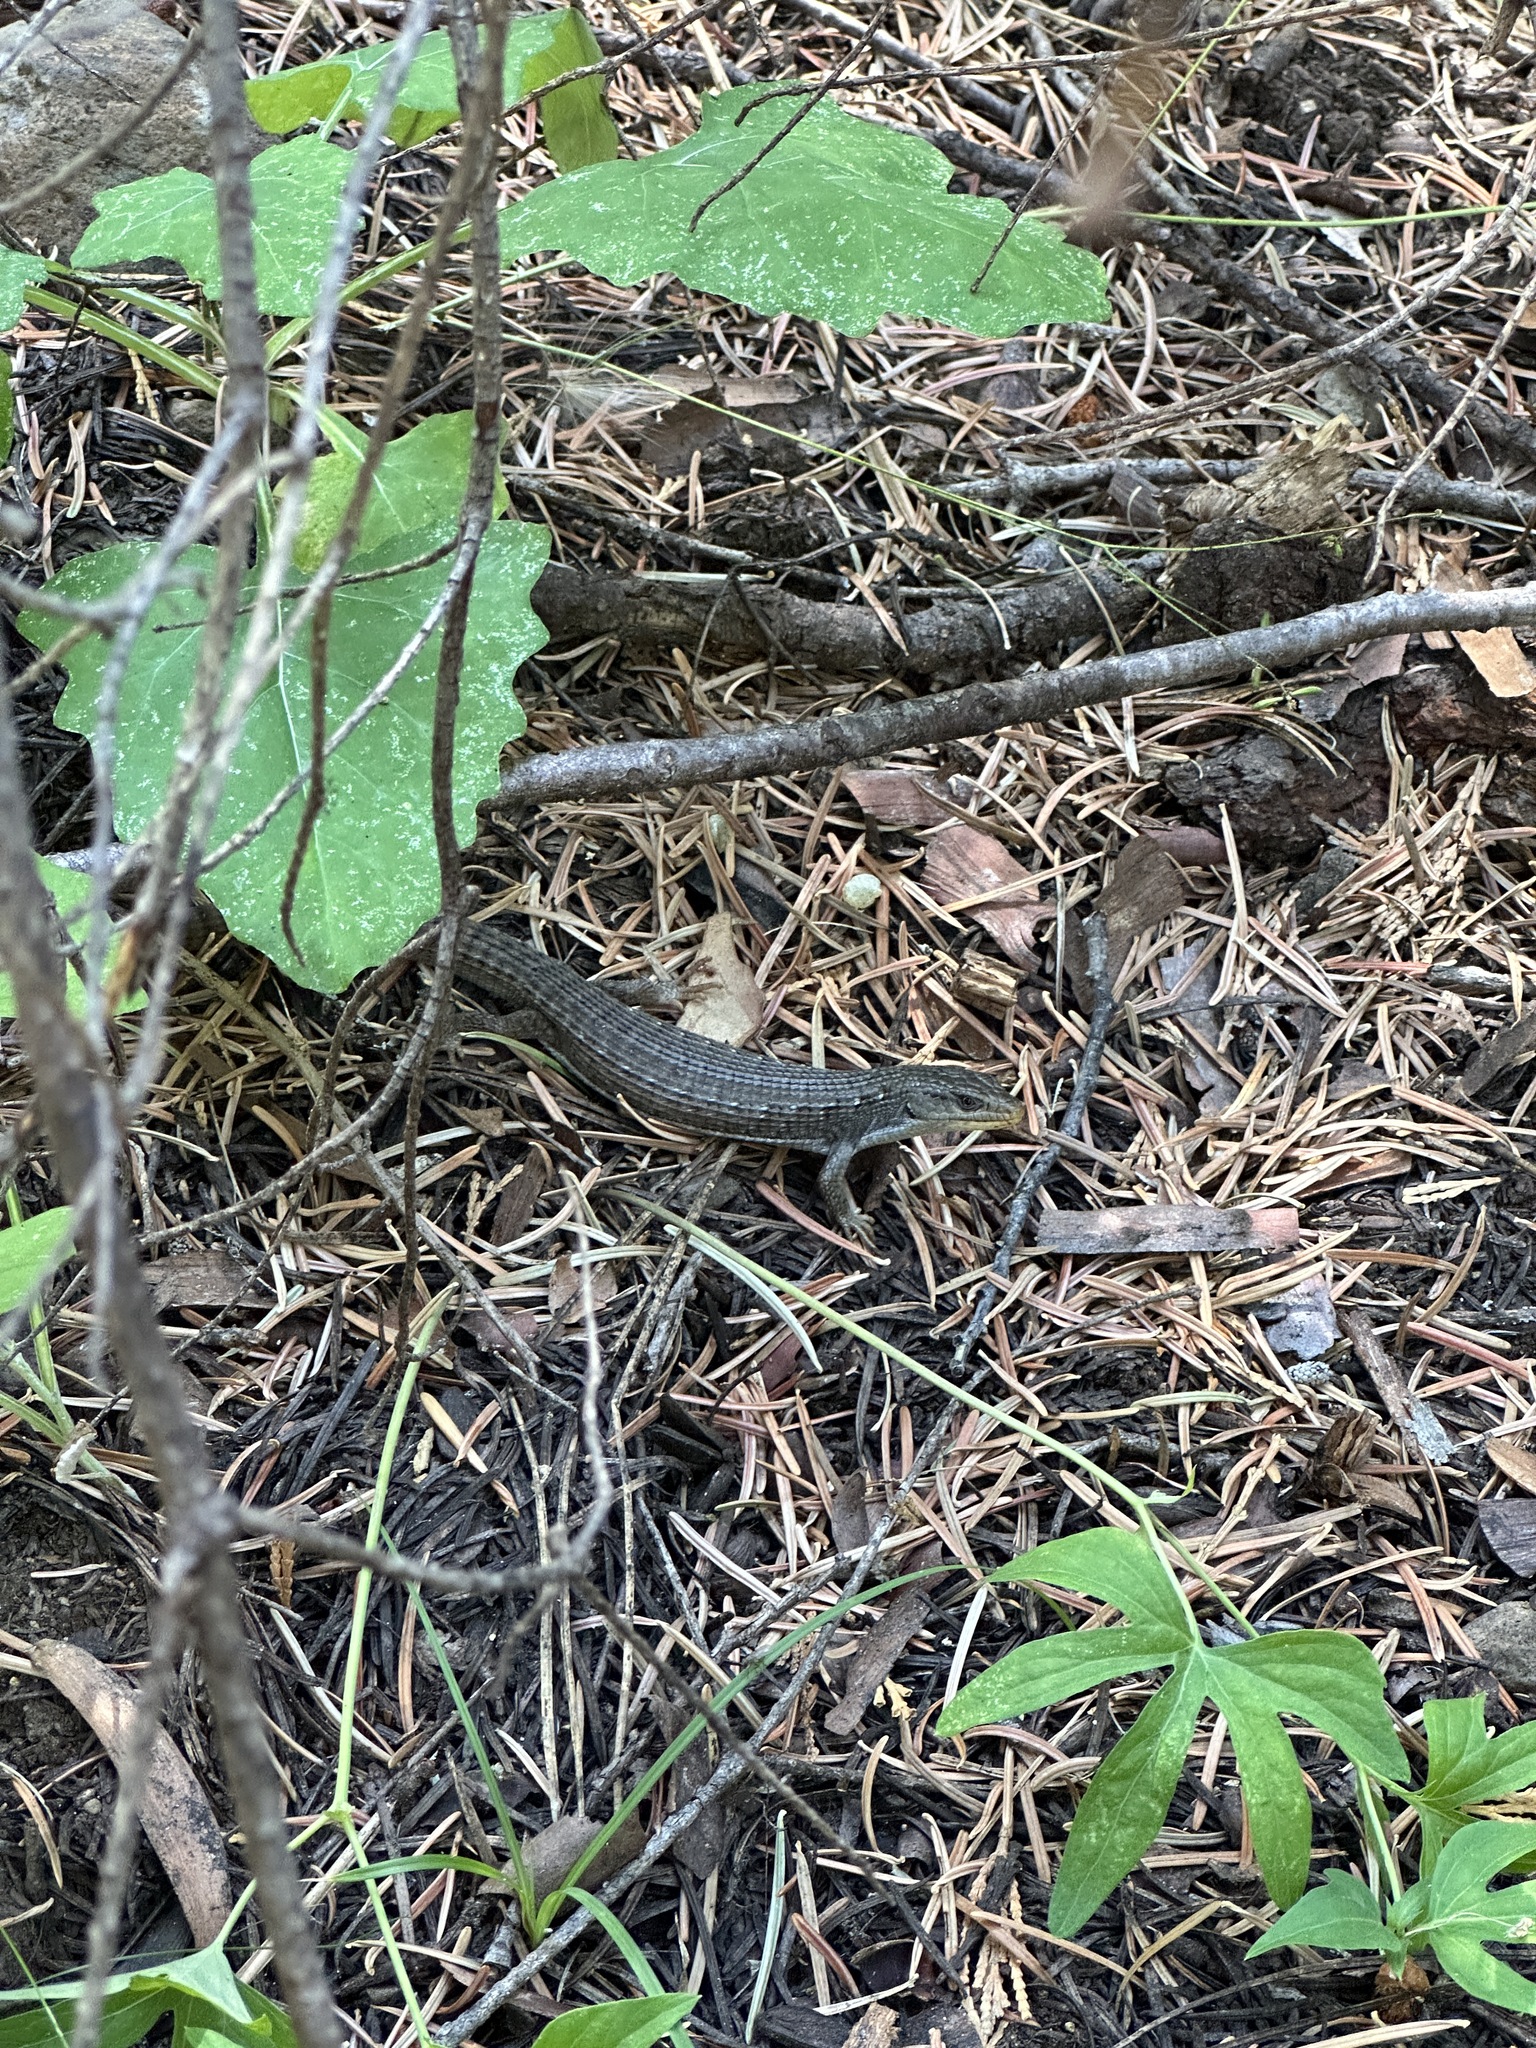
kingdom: Animalia
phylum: Chordata
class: Squamata
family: Anguidae
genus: Elgaria
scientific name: Elgaria coerulea
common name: Northern alligator lizard
